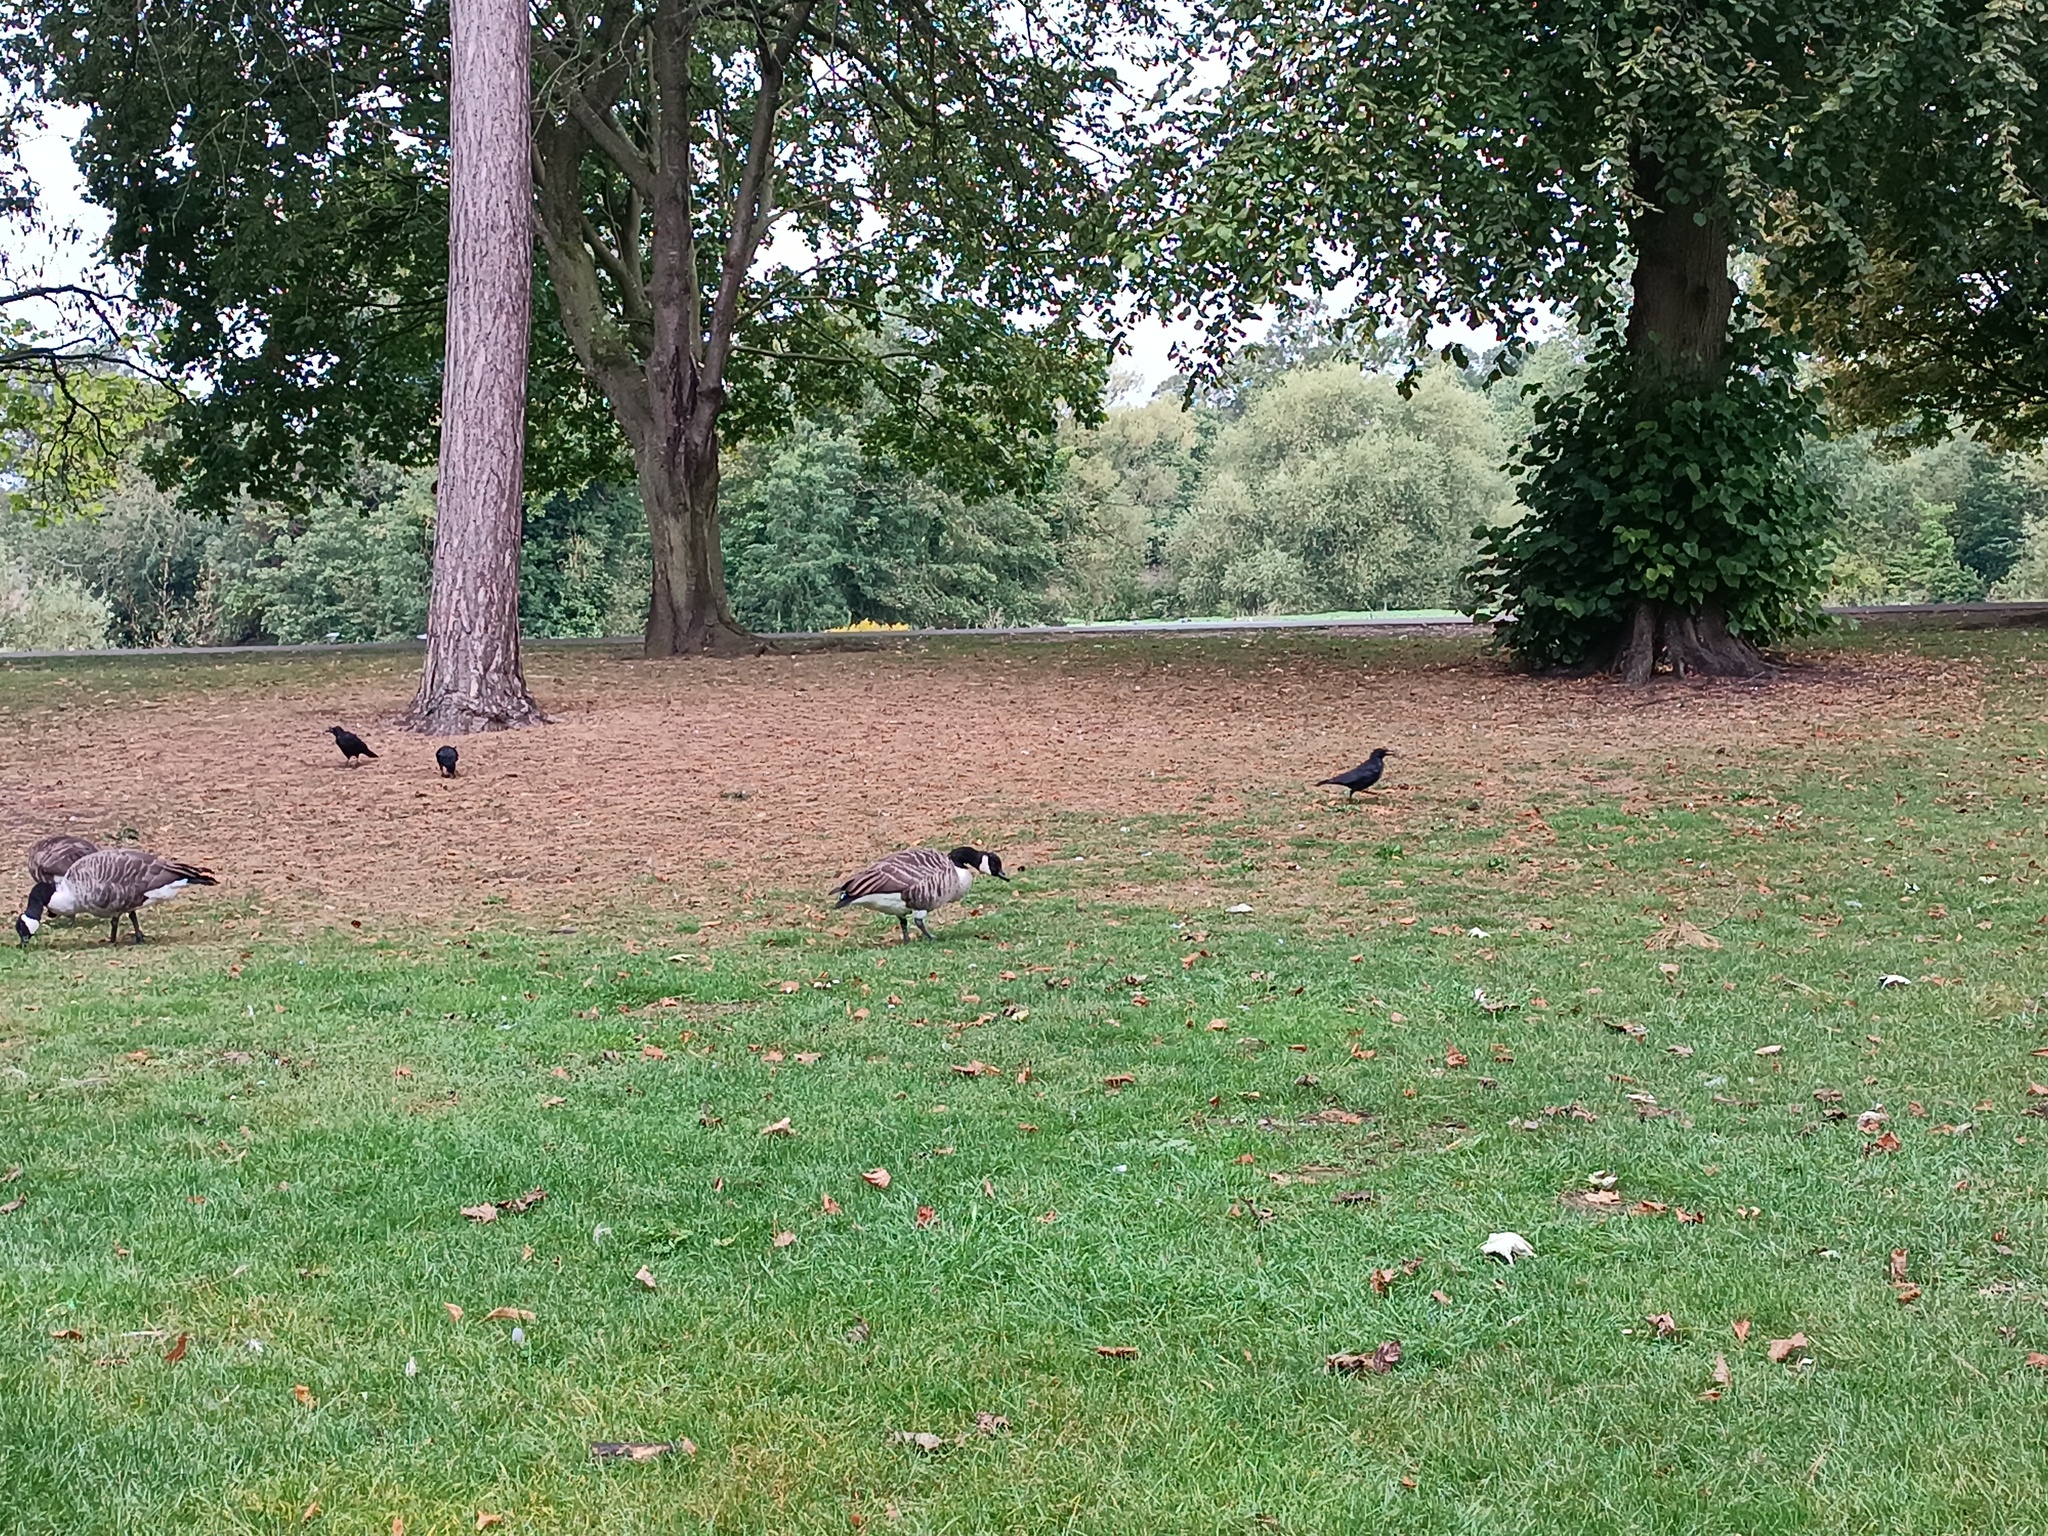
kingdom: Animalia
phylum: Chordata
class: Aves
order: Anseriformes
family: Anatidae
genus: Branta
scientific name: Branta canadensis
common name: Canada goose
